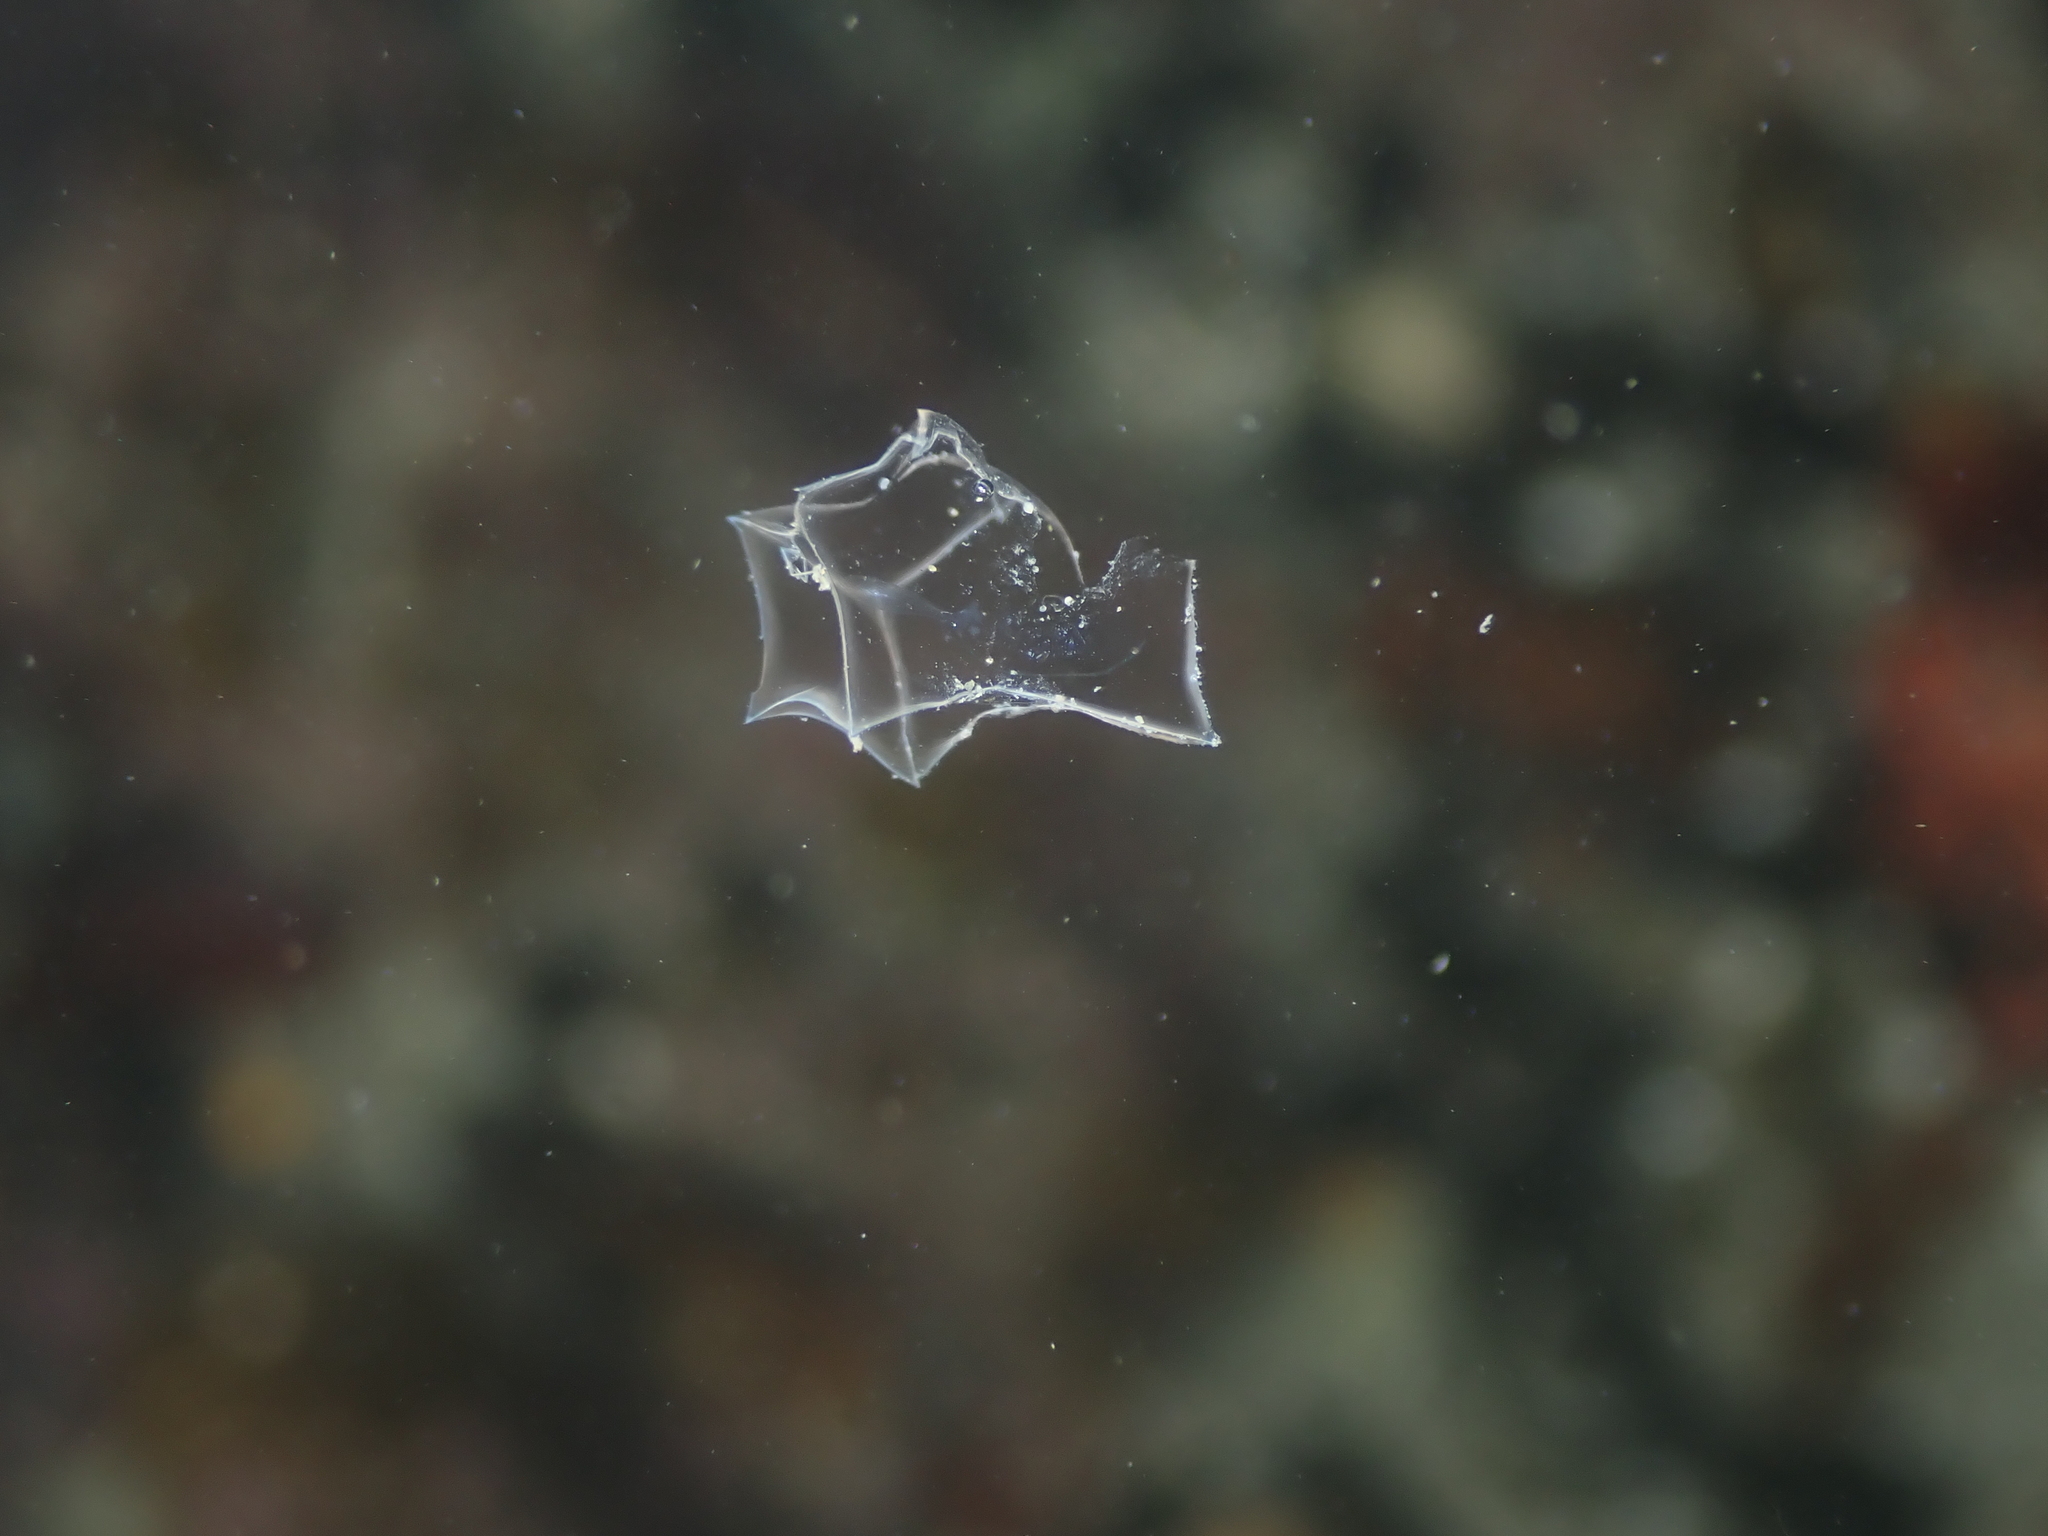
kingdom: Animalia
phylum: Cnidaria
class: Hydrozoa
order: Siphonophorae
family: Abylidae
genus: Bassia
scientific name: Bassia bassensis
